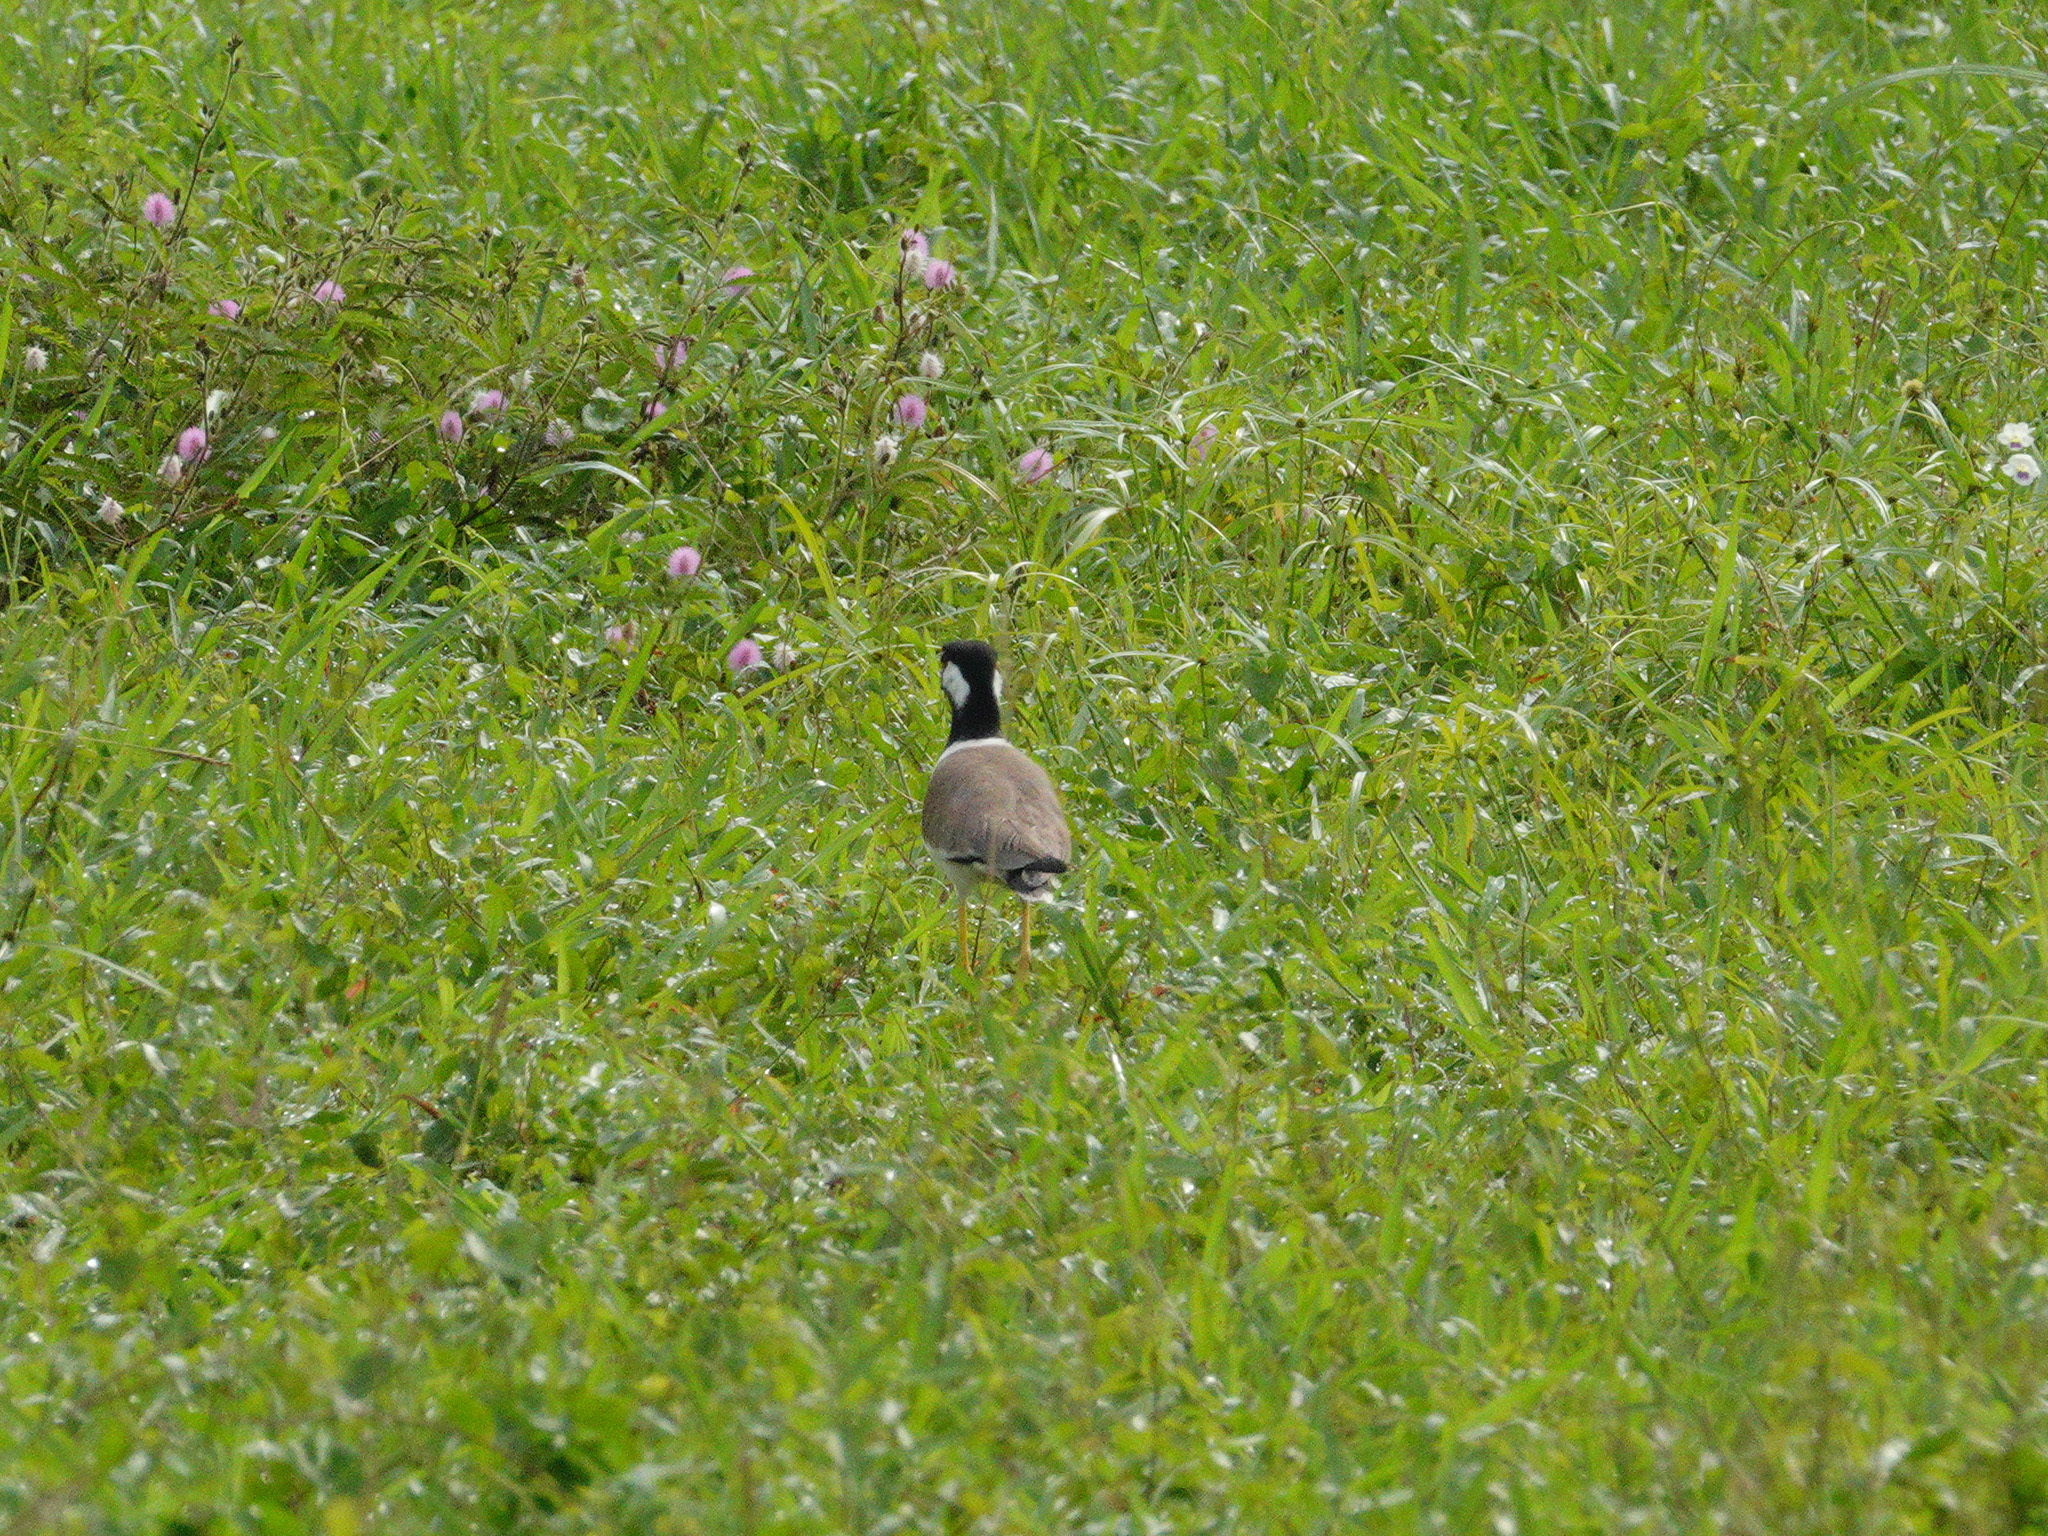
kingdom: Animalia
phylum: Chordata
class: Aves
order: Charadriiformes
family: Charadriidae
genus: Vanellus
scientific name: Vanellus indicus
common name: Red-wattled lapwing
